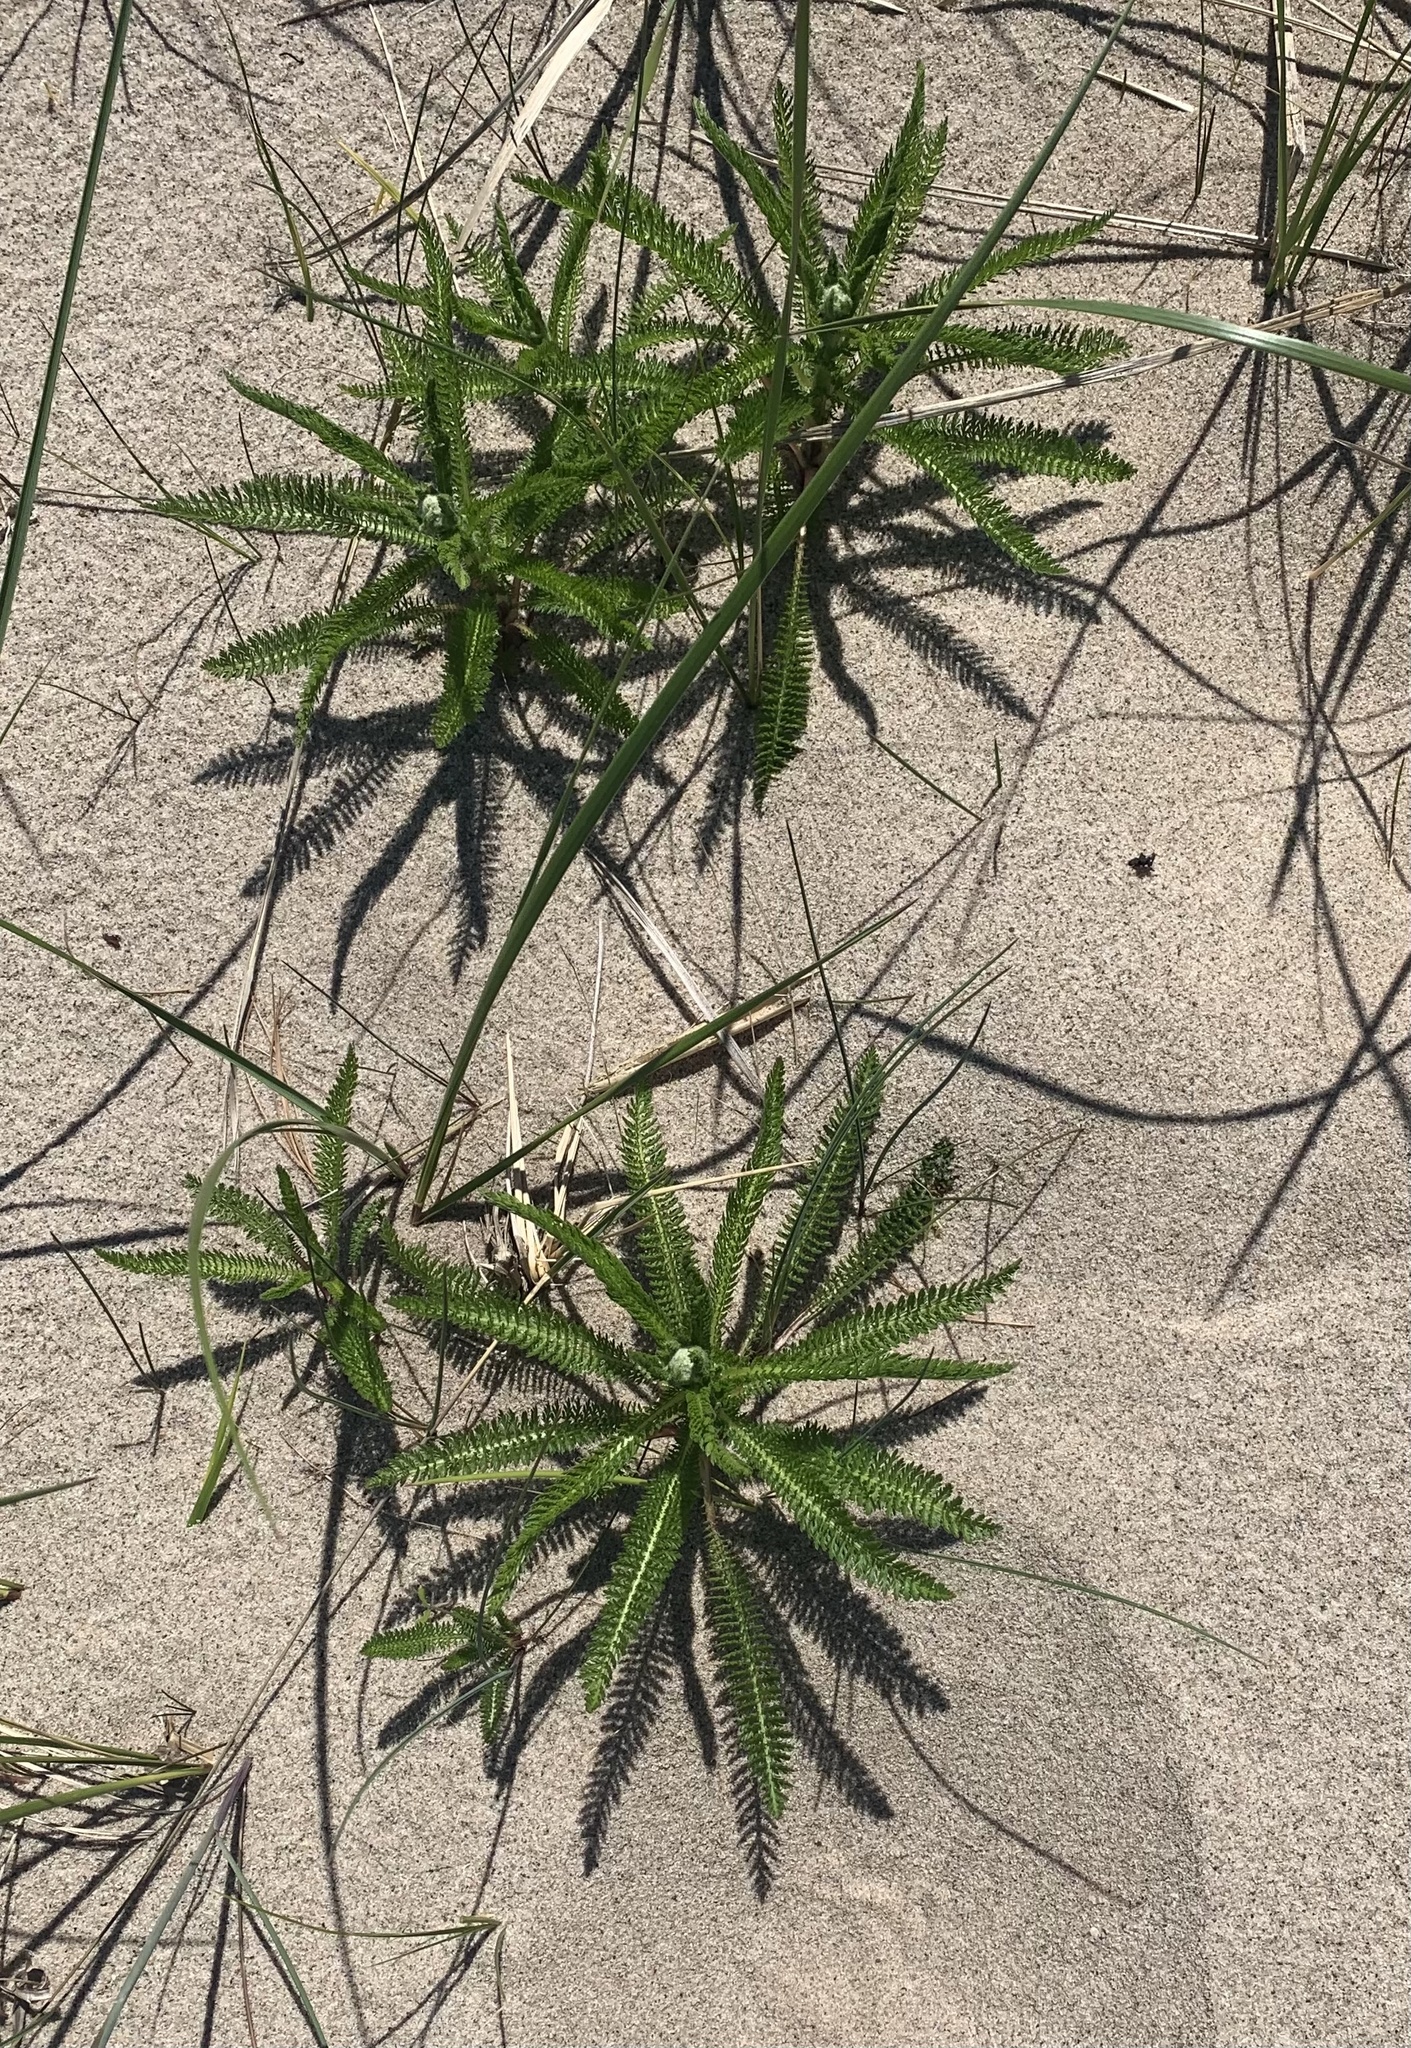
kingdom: Plantae
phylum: Tracheophyta
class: Magnoliopsida
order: Asterales
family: Asteraceae
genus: Achillea
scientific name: Achillea millefolium
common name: Yarrow
